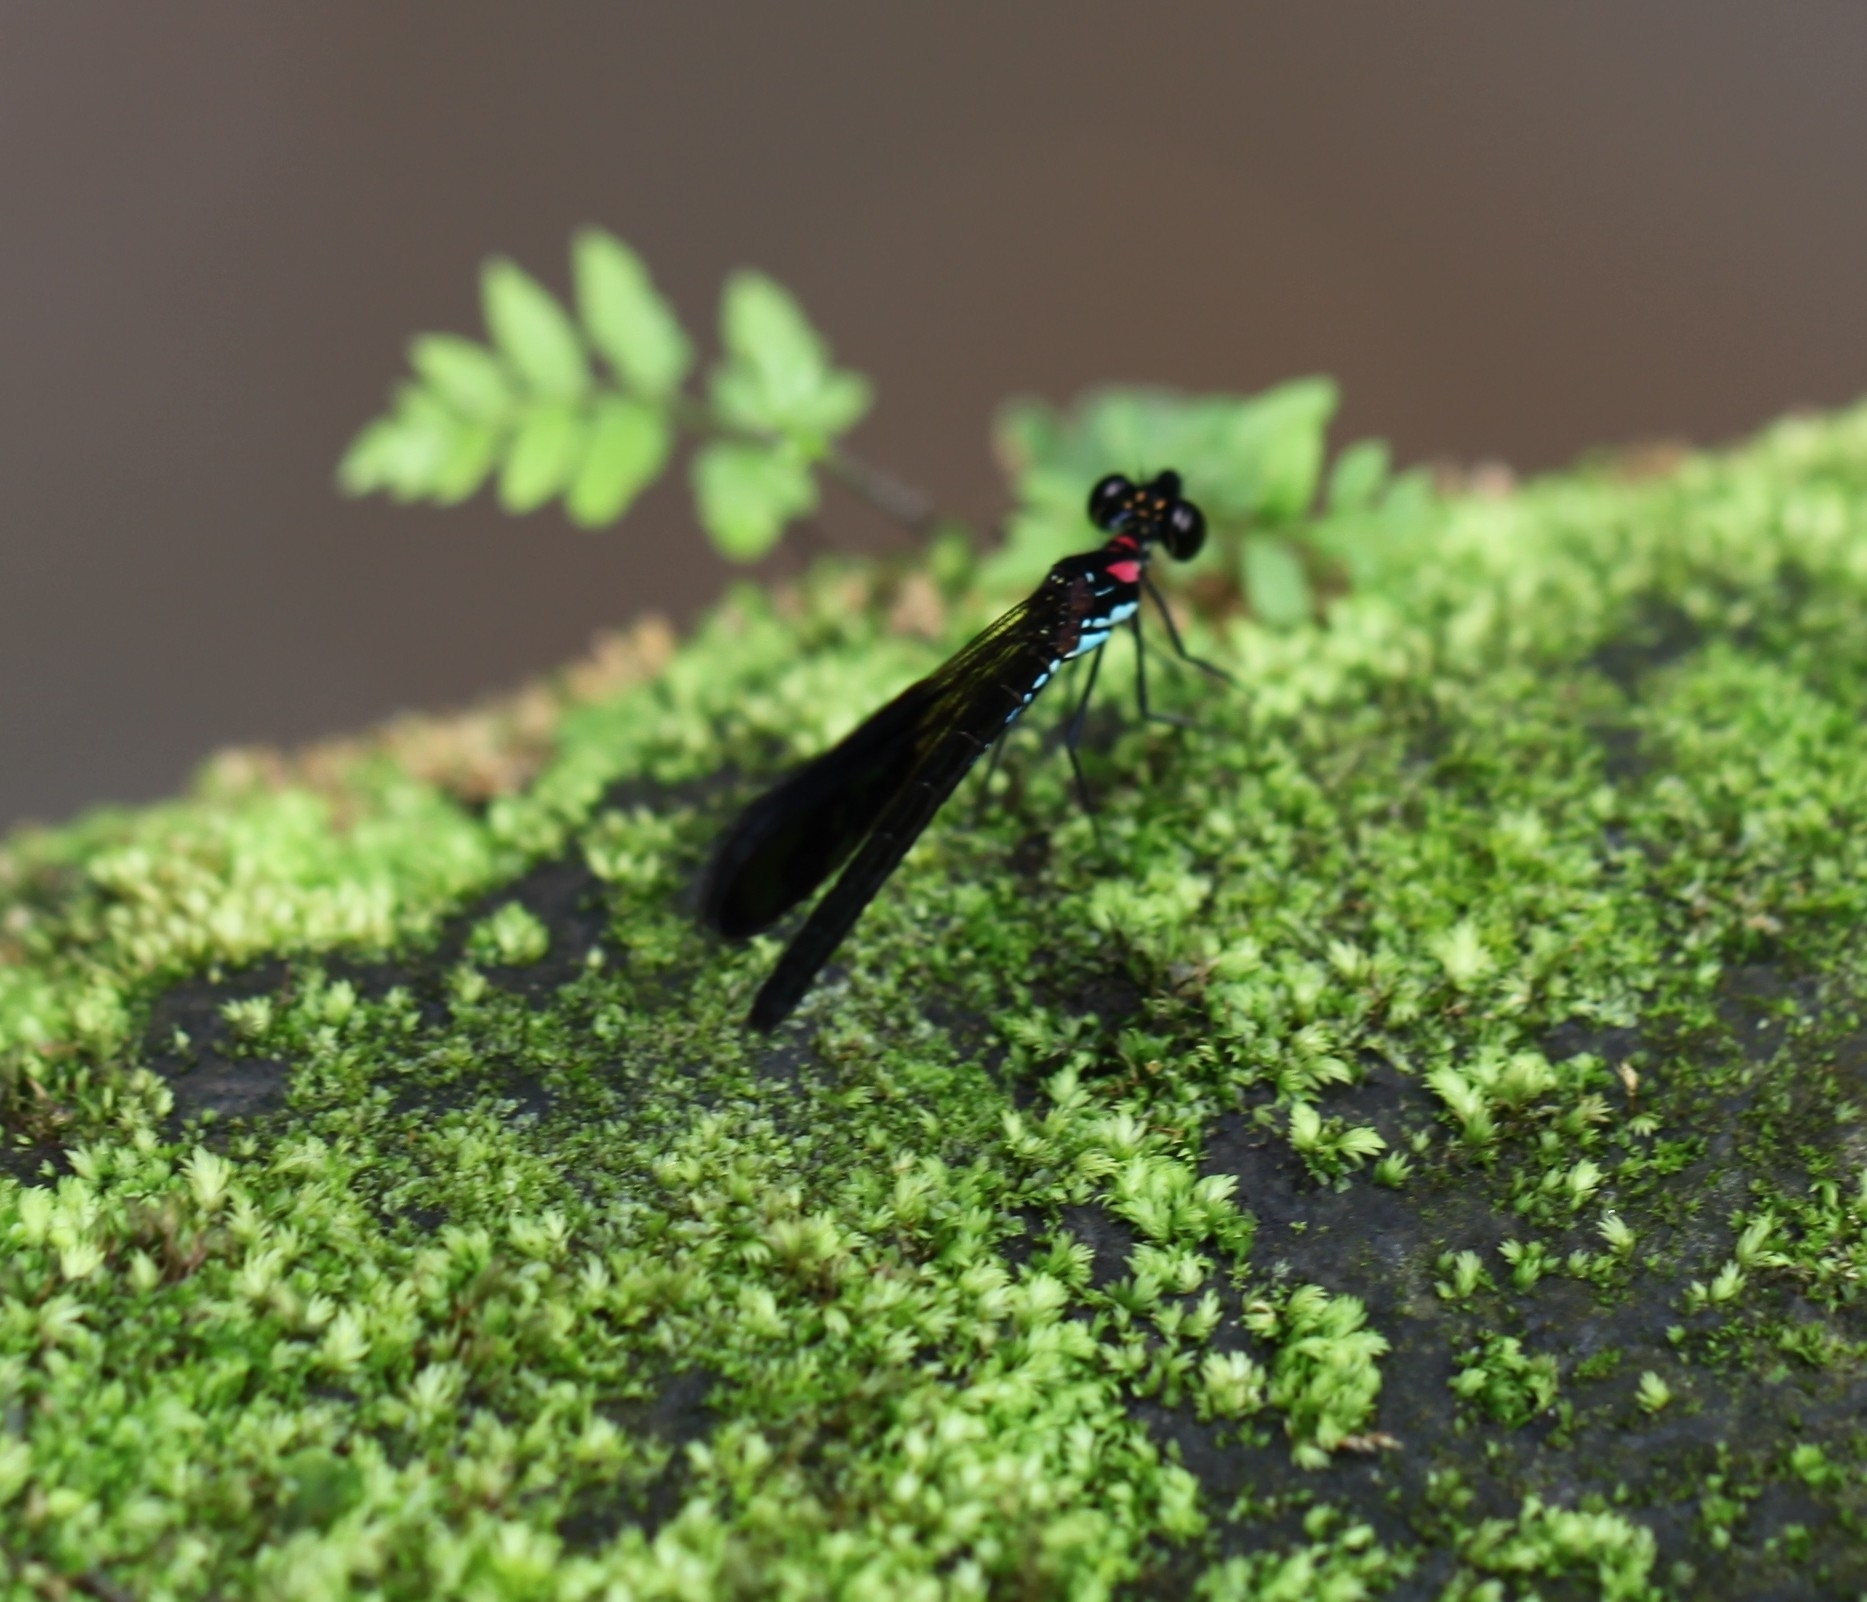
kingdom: Animalia
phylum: Arthropoda
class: Insecta
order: Odonata
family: Chlorocyphidae
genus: Heliocypha
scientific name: Heliocypha fenestrata
